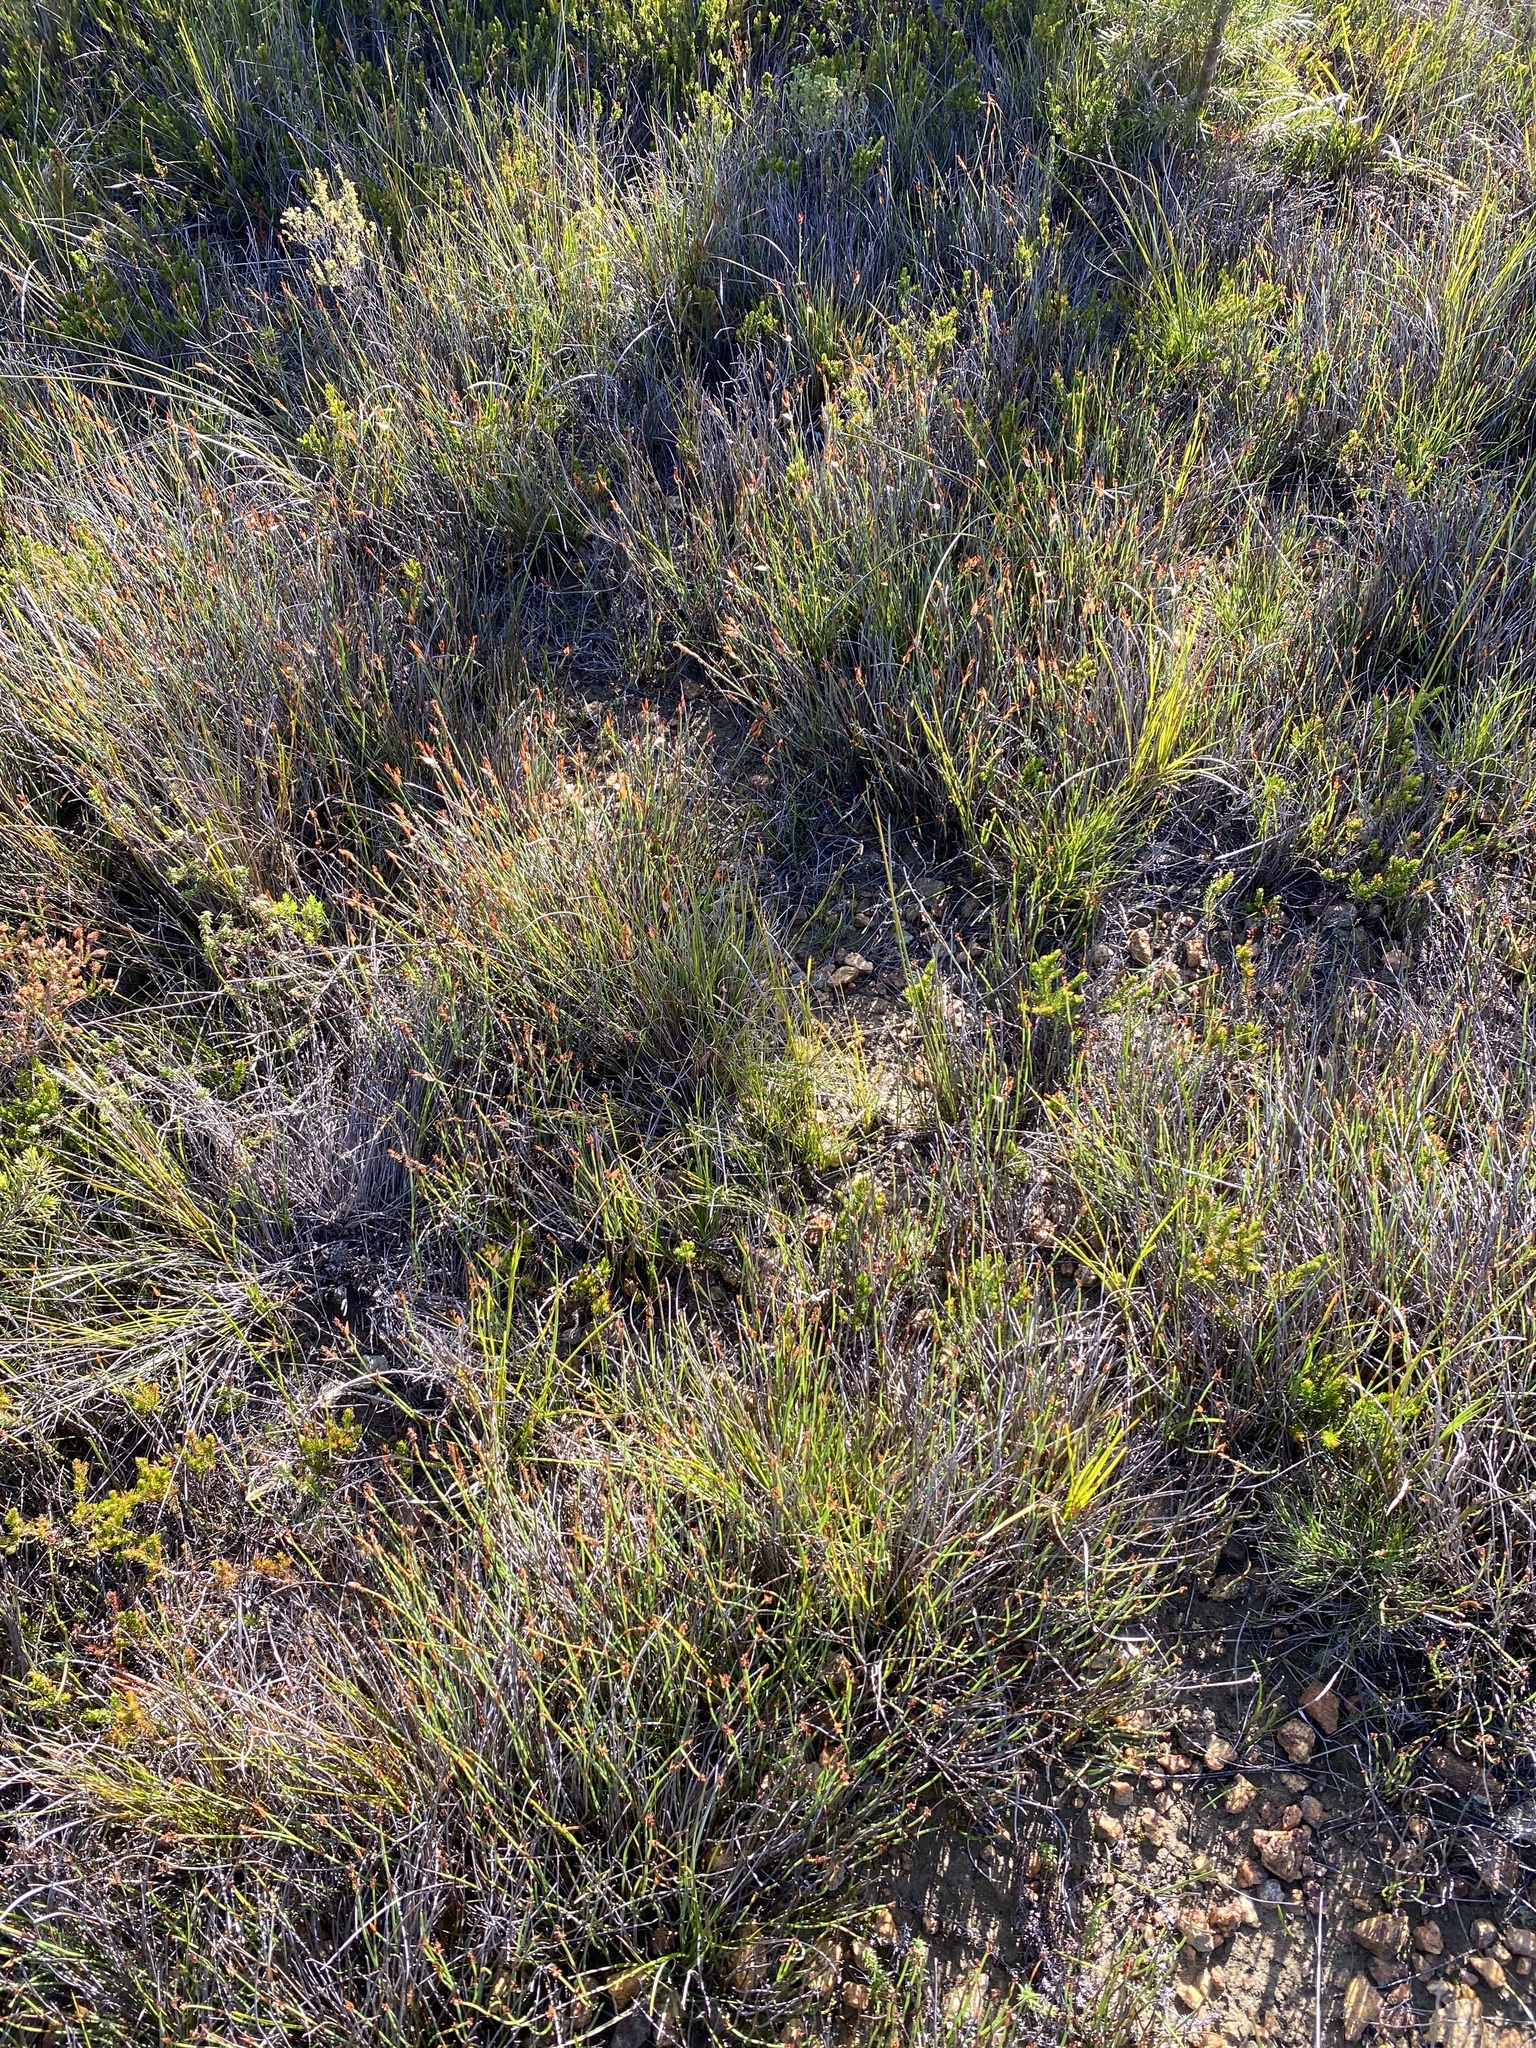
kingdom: Plantae
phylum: Tracheophyta
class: Liliopsida
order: Poales
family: Restionaceae
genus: Elegia
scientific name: Elegia vaginulata
